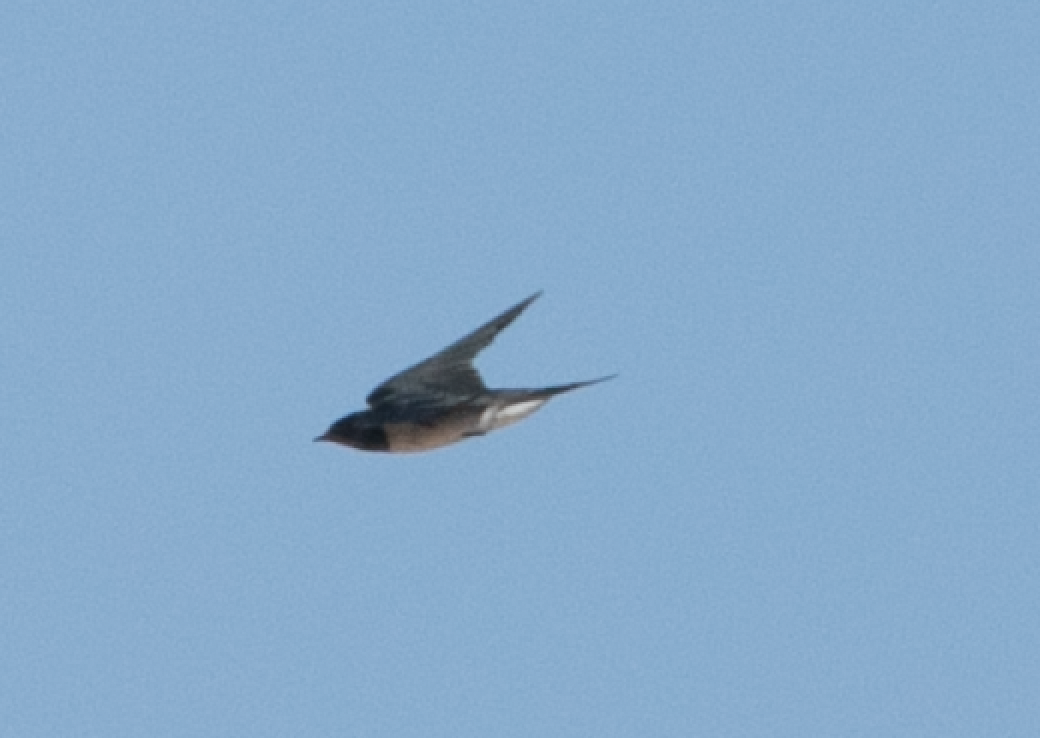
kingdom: Animalia
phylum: Chordata
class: Aves
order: Passeriformes
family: Hirundinidae
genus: Hirundo
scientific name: Hirundo rustica
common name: Barn swallow
